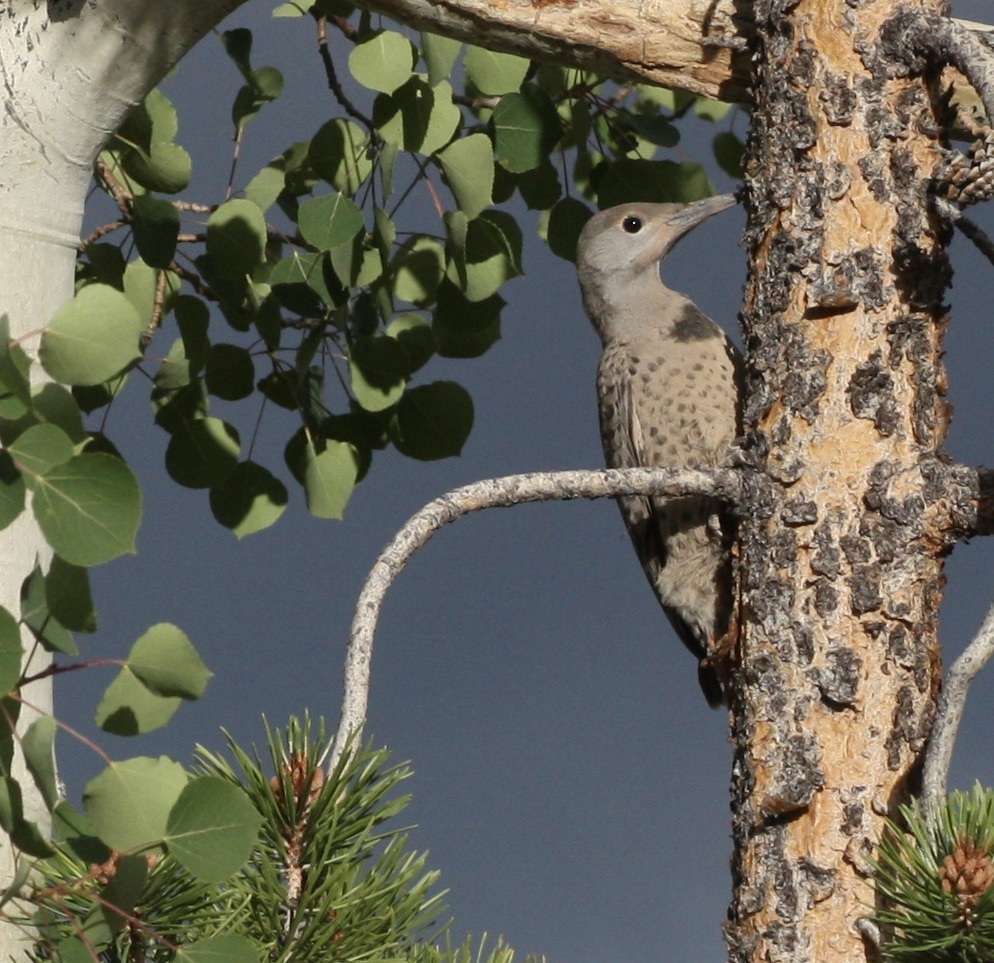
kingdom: Animalia
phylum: Chordata
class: Aves
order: Piciformes
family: Picidae
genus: Colaptes
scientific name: Colaptes auratus
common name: Northern flicker
